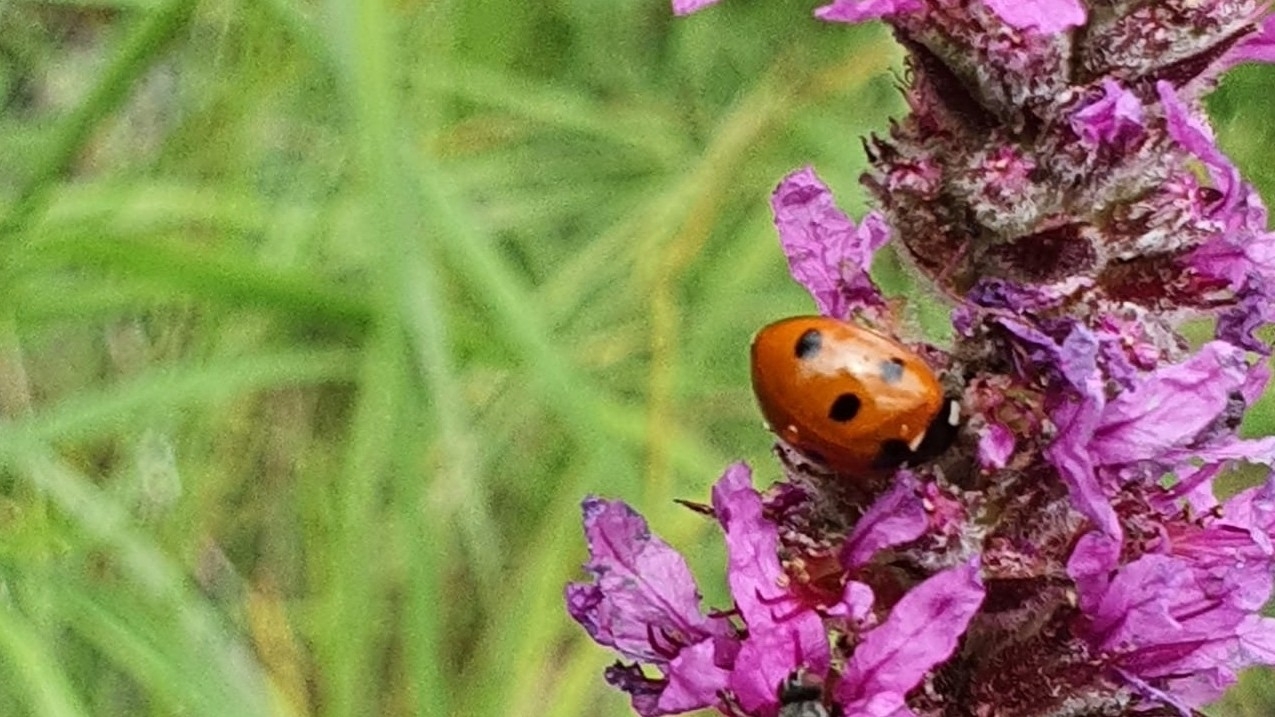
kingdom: Animalia
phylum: Arthropoda
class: Insecta
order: Coleoptera
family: Coccinellidae
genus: Coccinella
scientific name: Coccinella septempunctata
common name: Sevenspotted lady beetle
